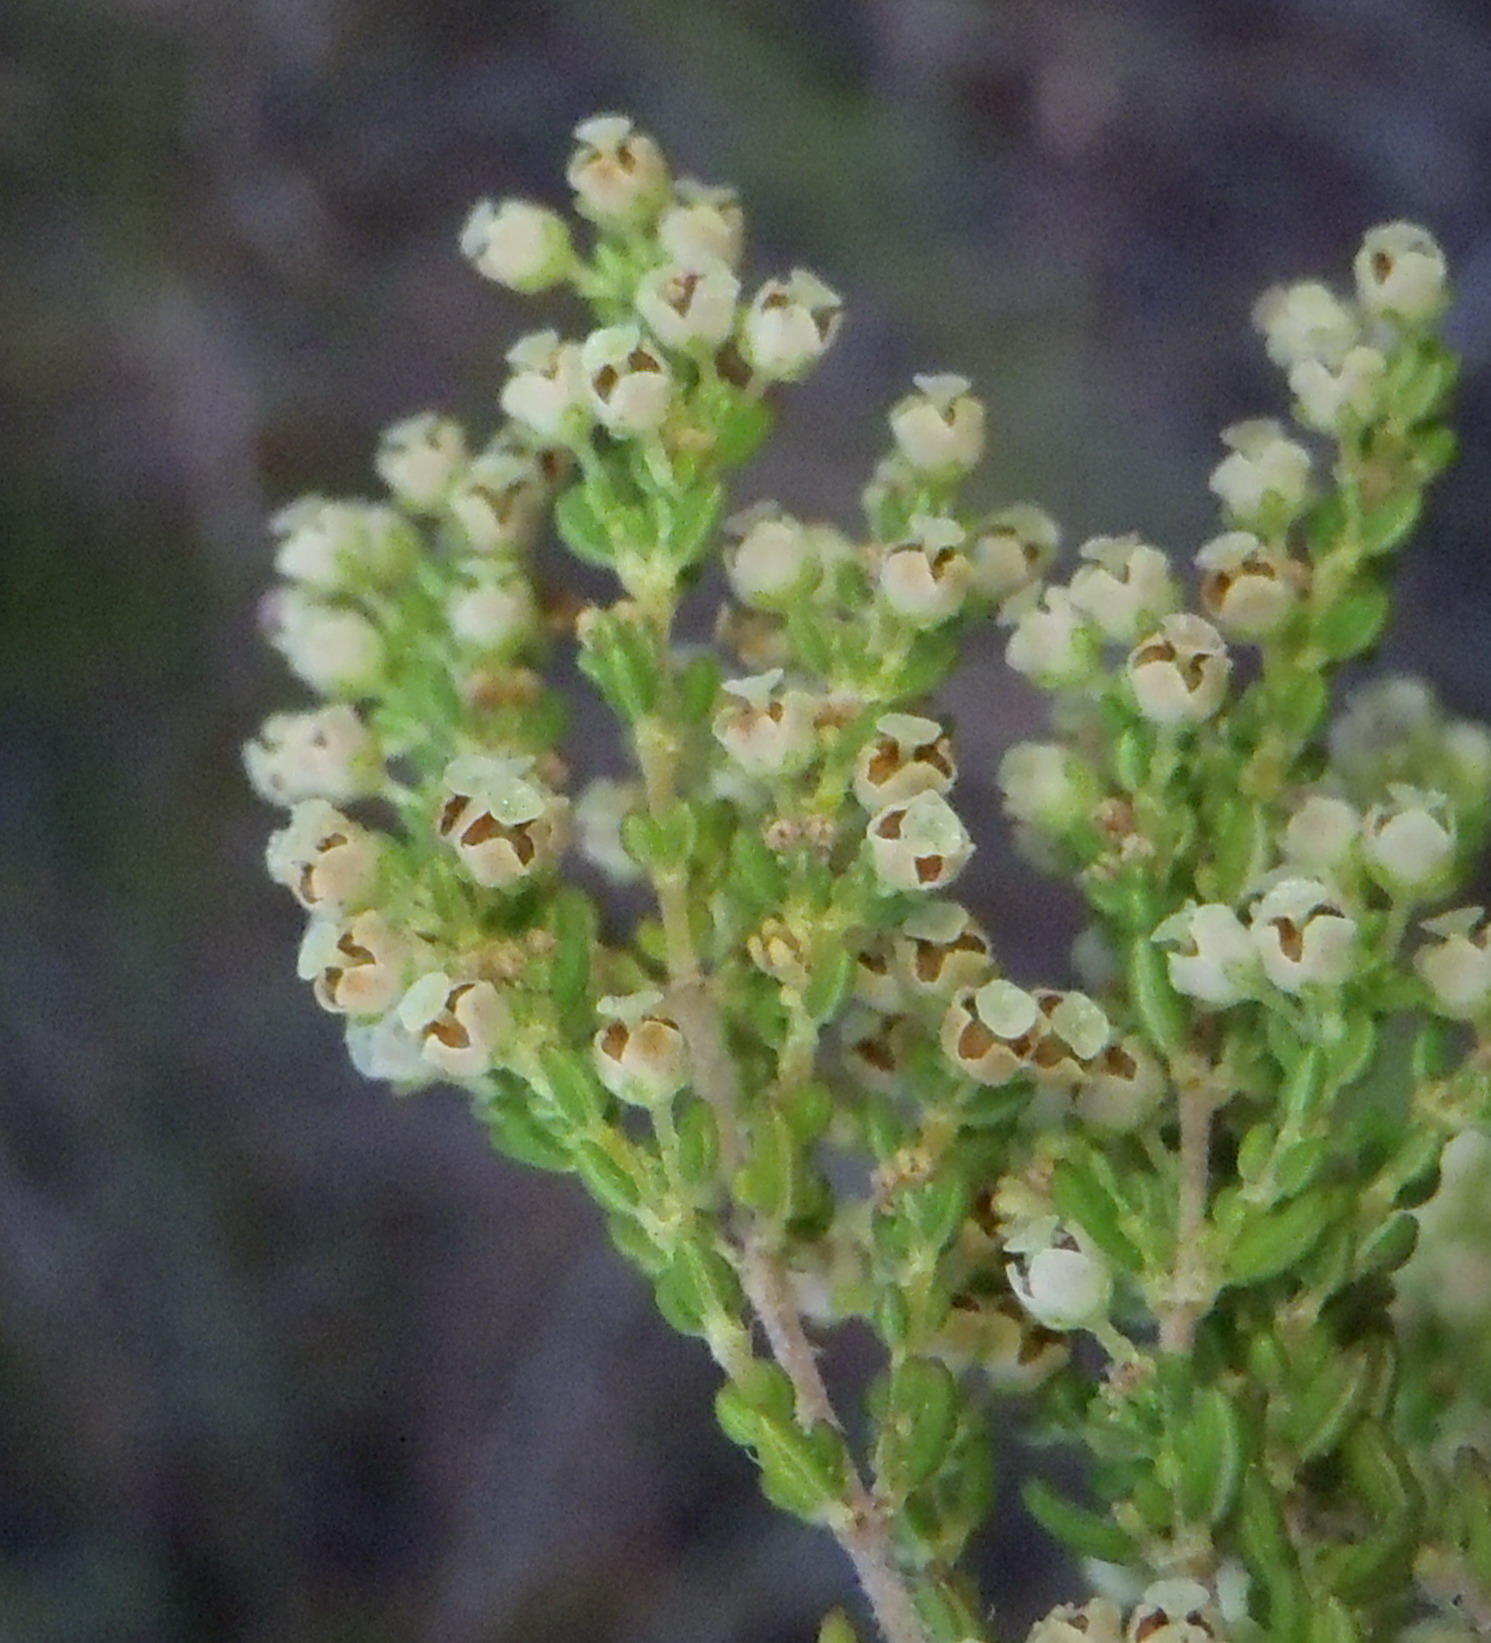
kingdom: Plantae
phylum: Tracheophyta
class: Magnoliopsida
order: Ericales
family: Ericaceae
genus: Erica
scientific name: Erica leucopelta
